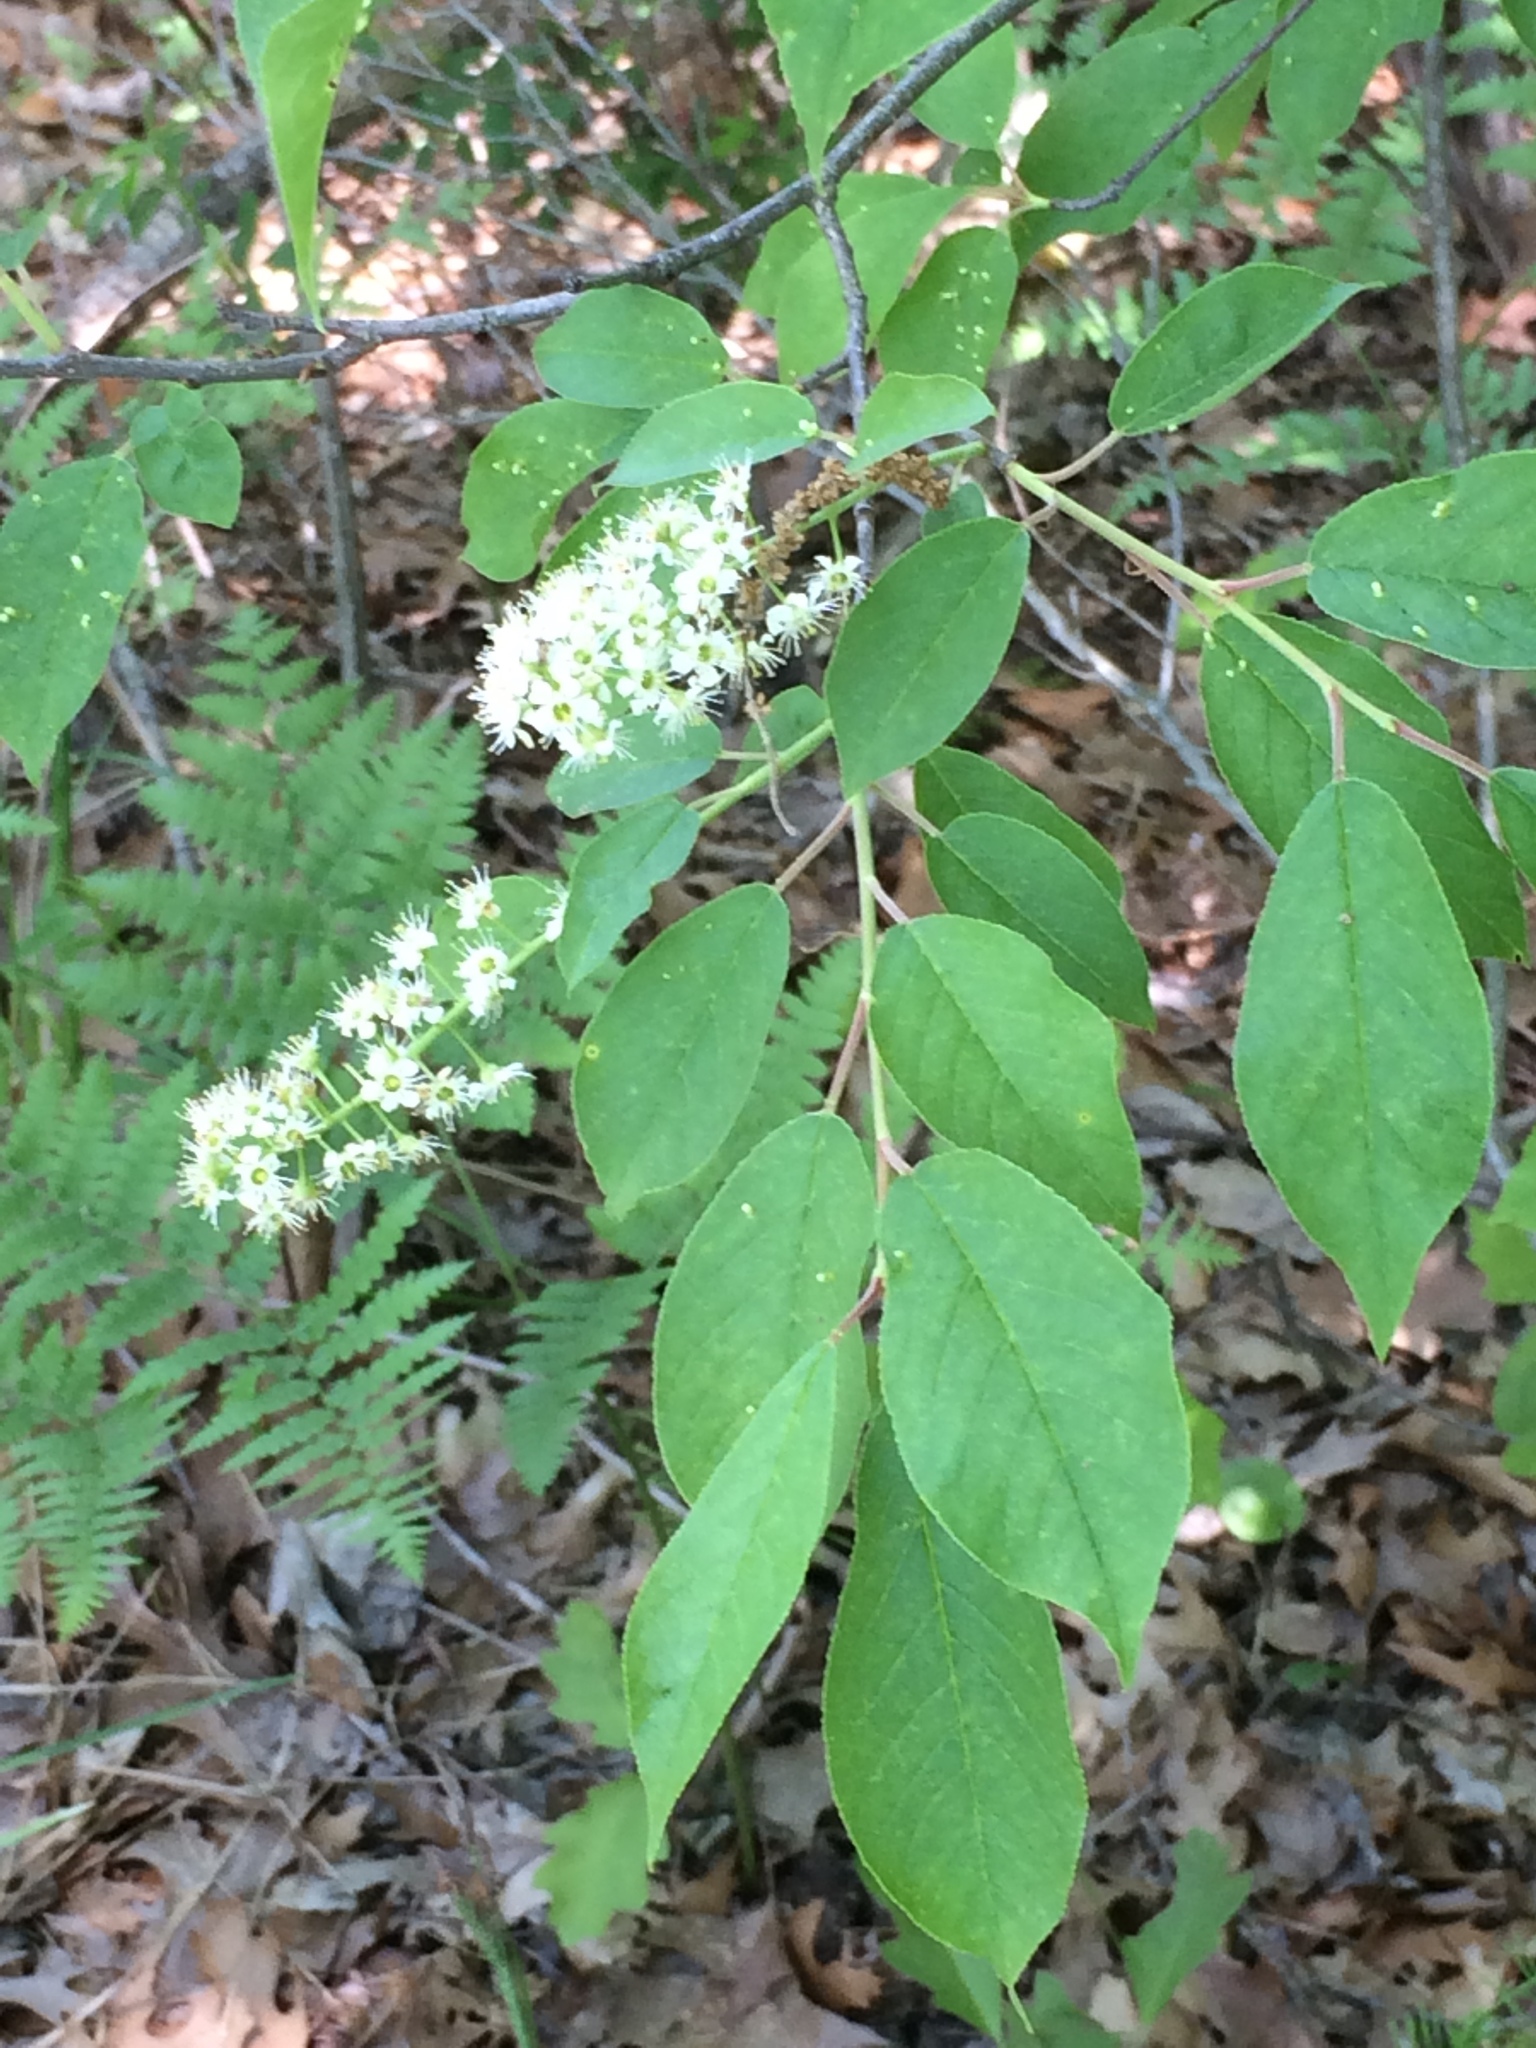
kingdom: Plantae
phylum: Tracheophyta
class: Magnoliopsida
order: Rosales
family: Rosaceae
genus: Prunus
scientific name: Prunus virginiana
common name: Chokecherry
